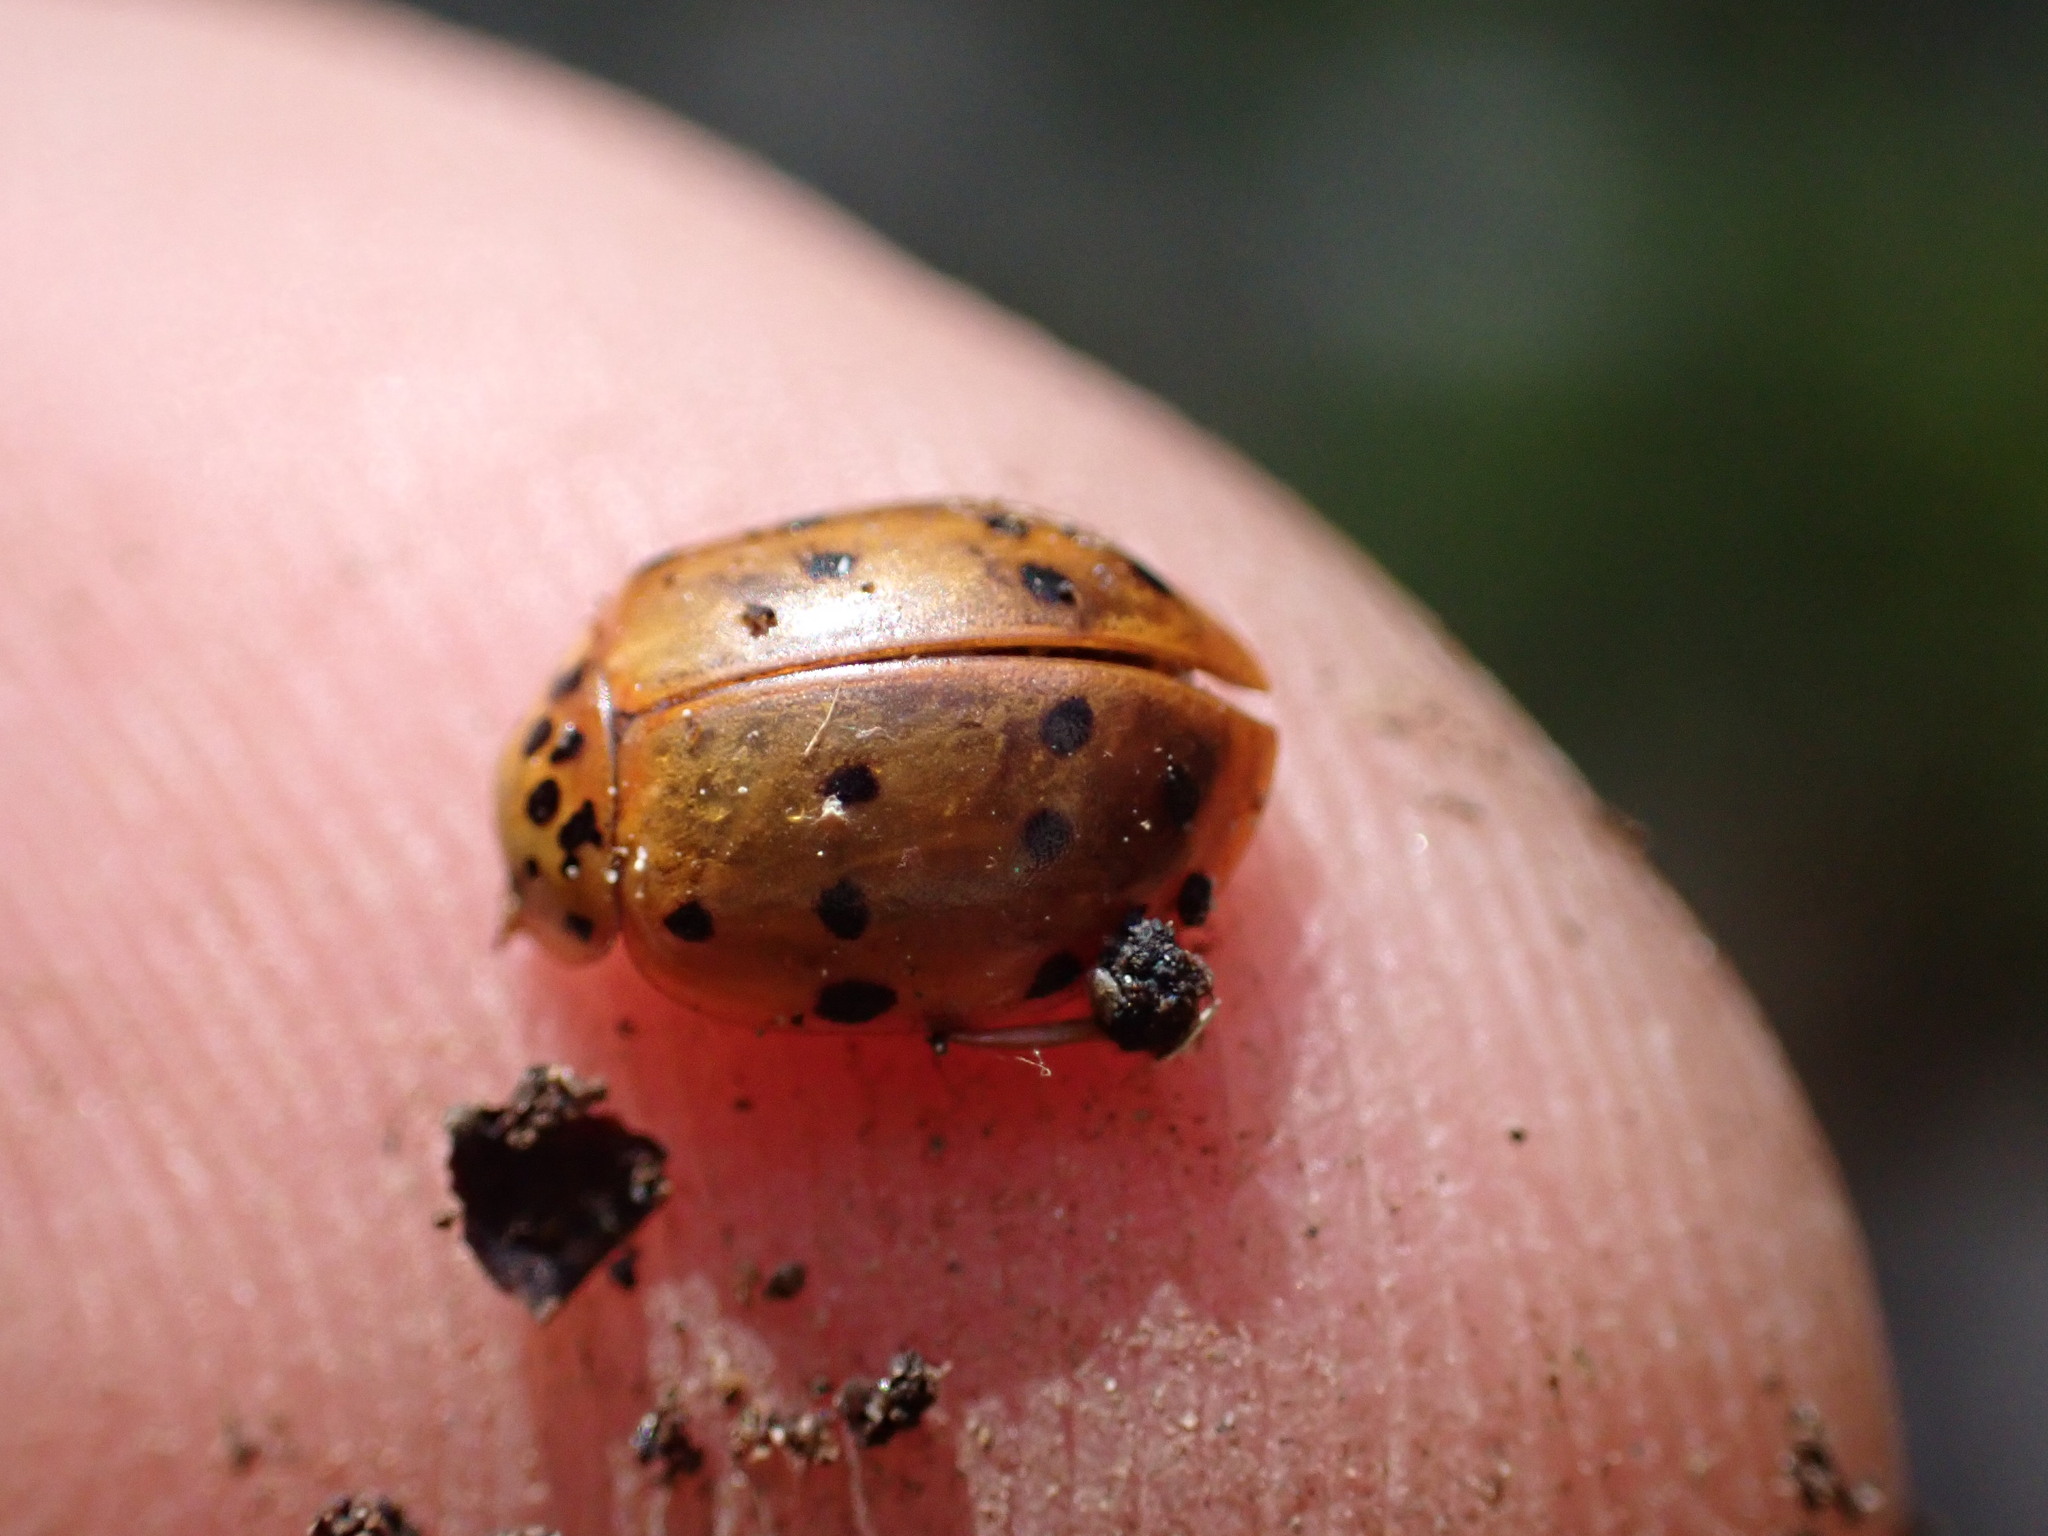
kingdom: Animalia
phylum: Arthropoda
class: Insecta
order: Coleoptera
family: Coccinellidae
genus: Harmonia
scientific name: Harmonia quadripunctata
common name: Cream-streaked ladybird
